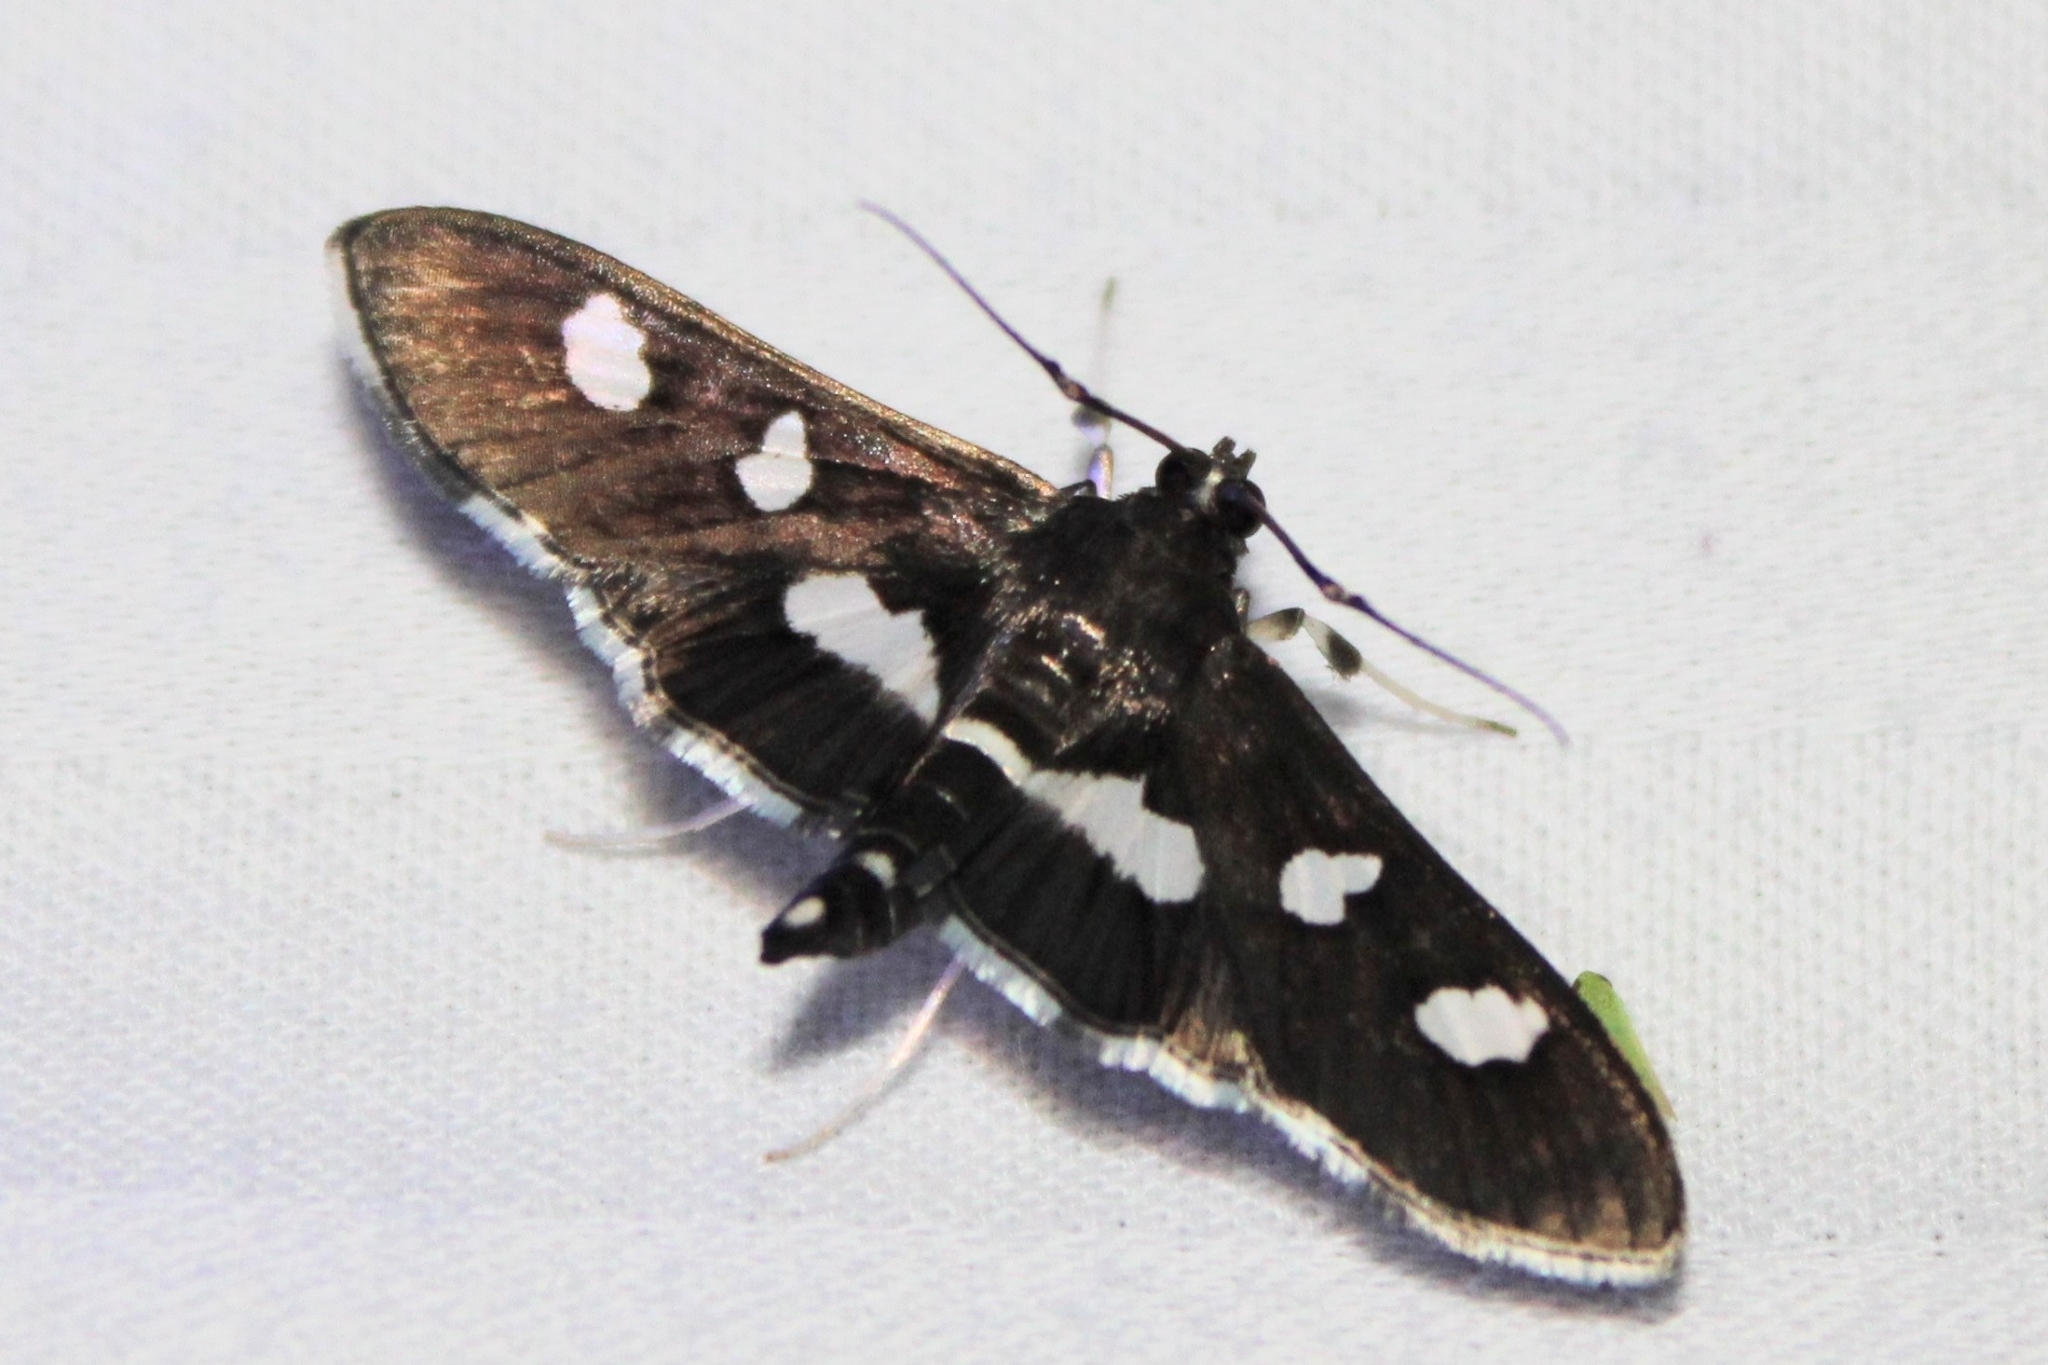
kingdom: Animalia
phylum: Arthropoda
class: Insecta
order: Lepidoptera
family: Crambidae
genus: Desmia
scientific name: Desmia
